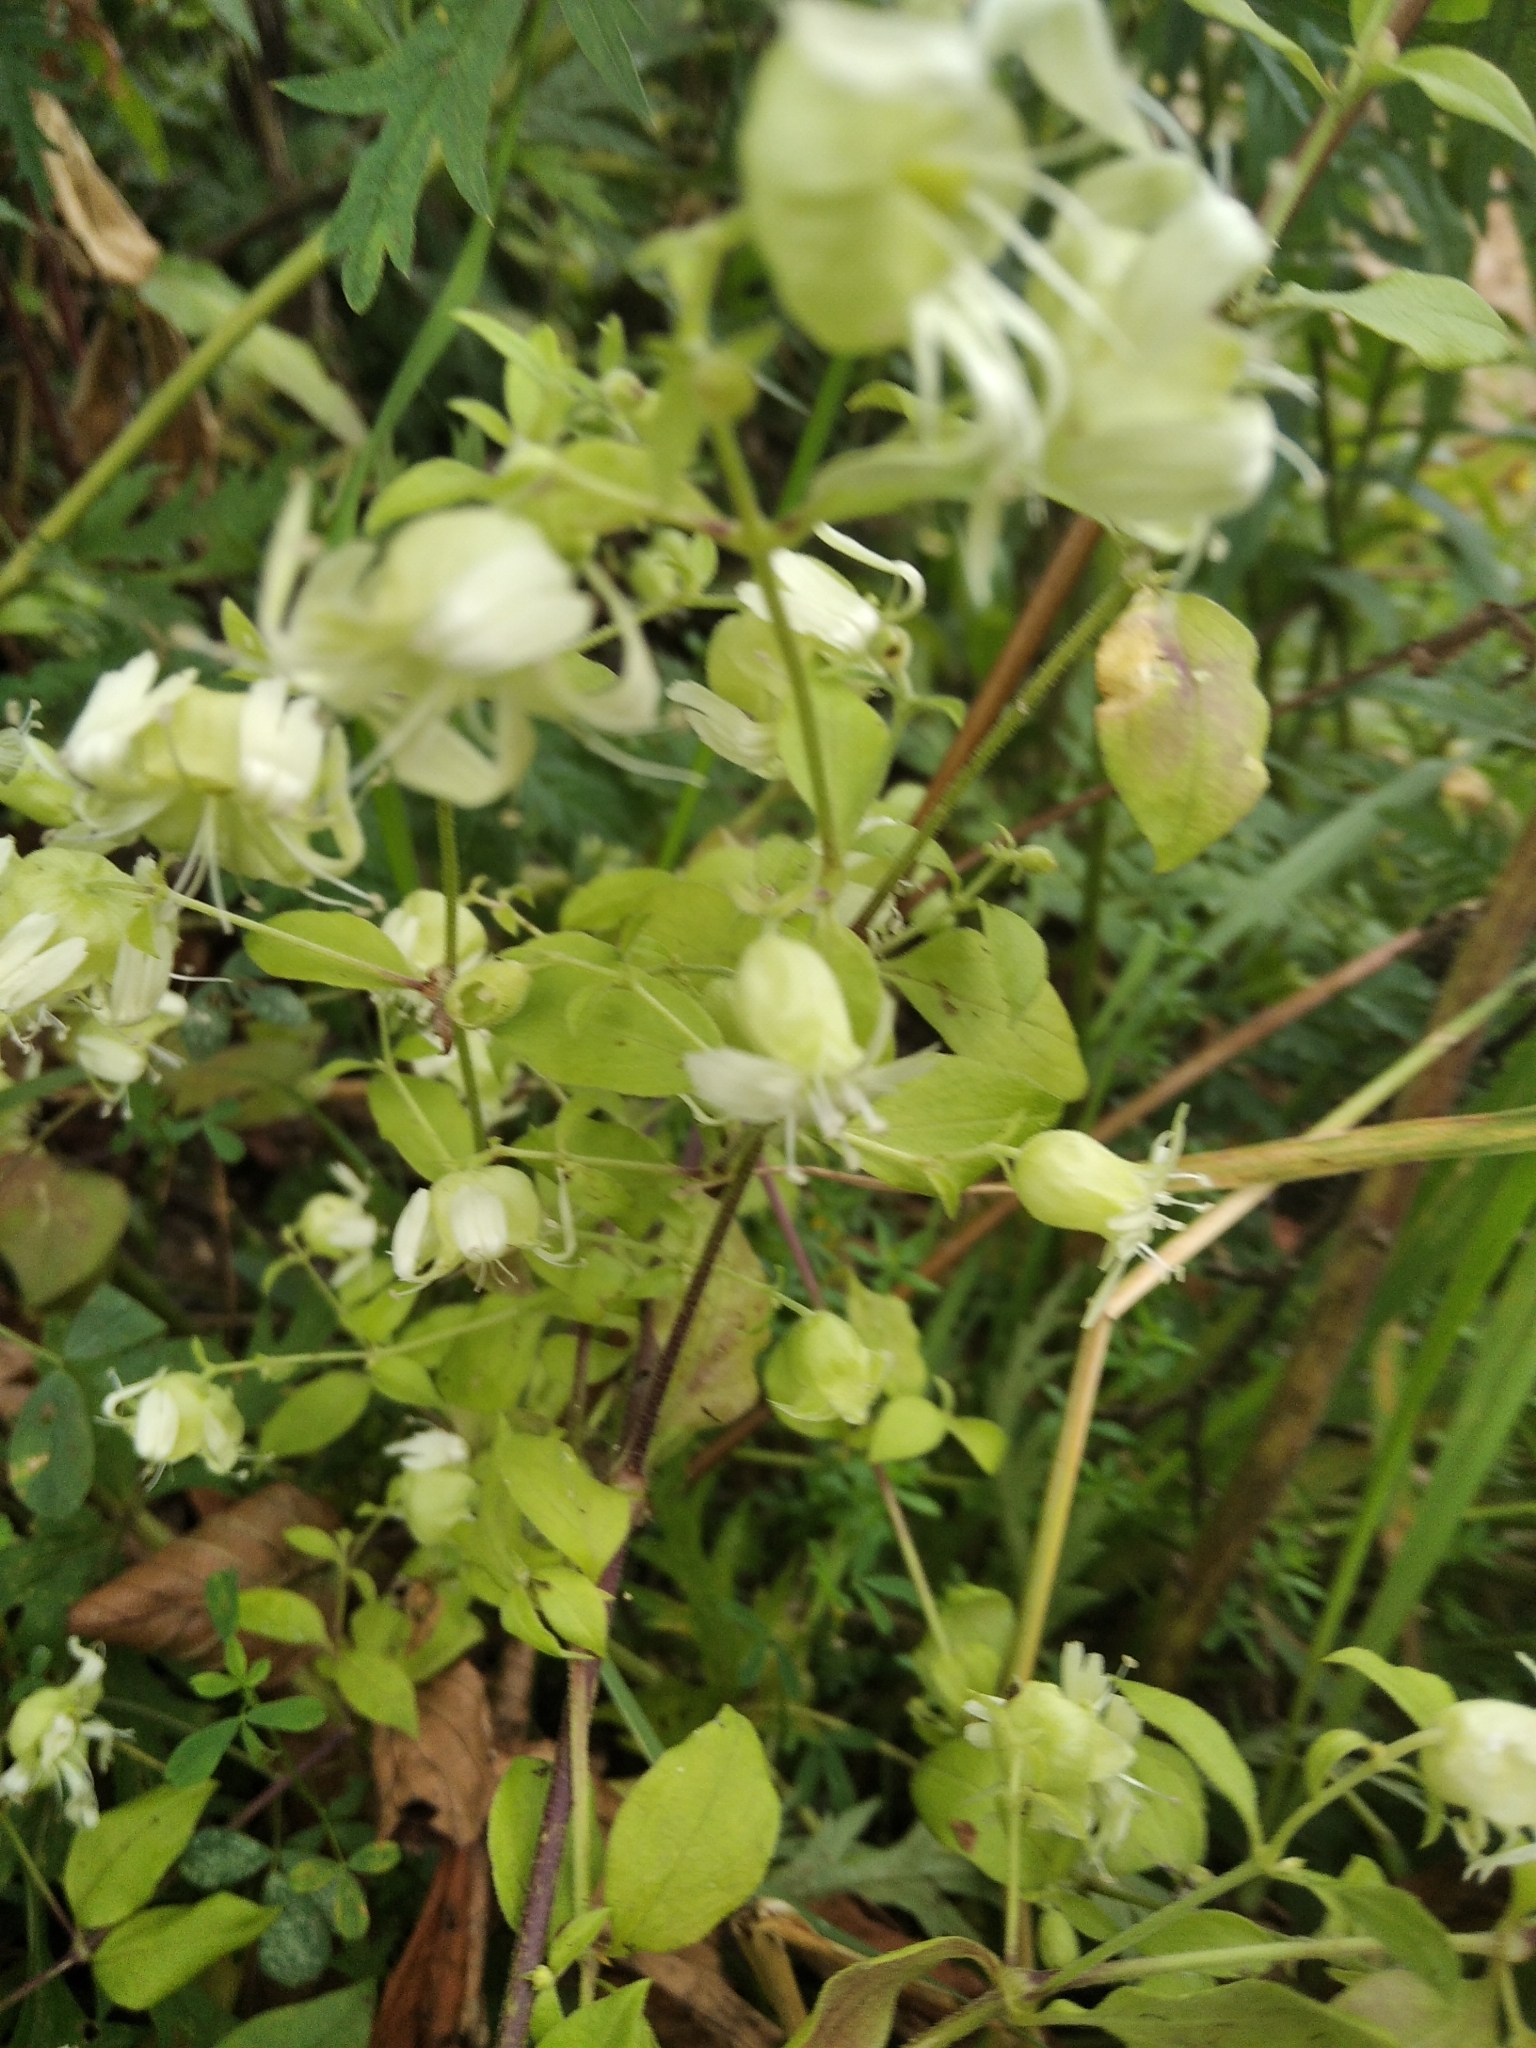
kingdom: Plantae
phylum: Tracheophyta
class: Magnoliopsida
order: Caryophyllales
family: Caryophyllaceae
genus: Silene
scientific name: Silene baccifera
